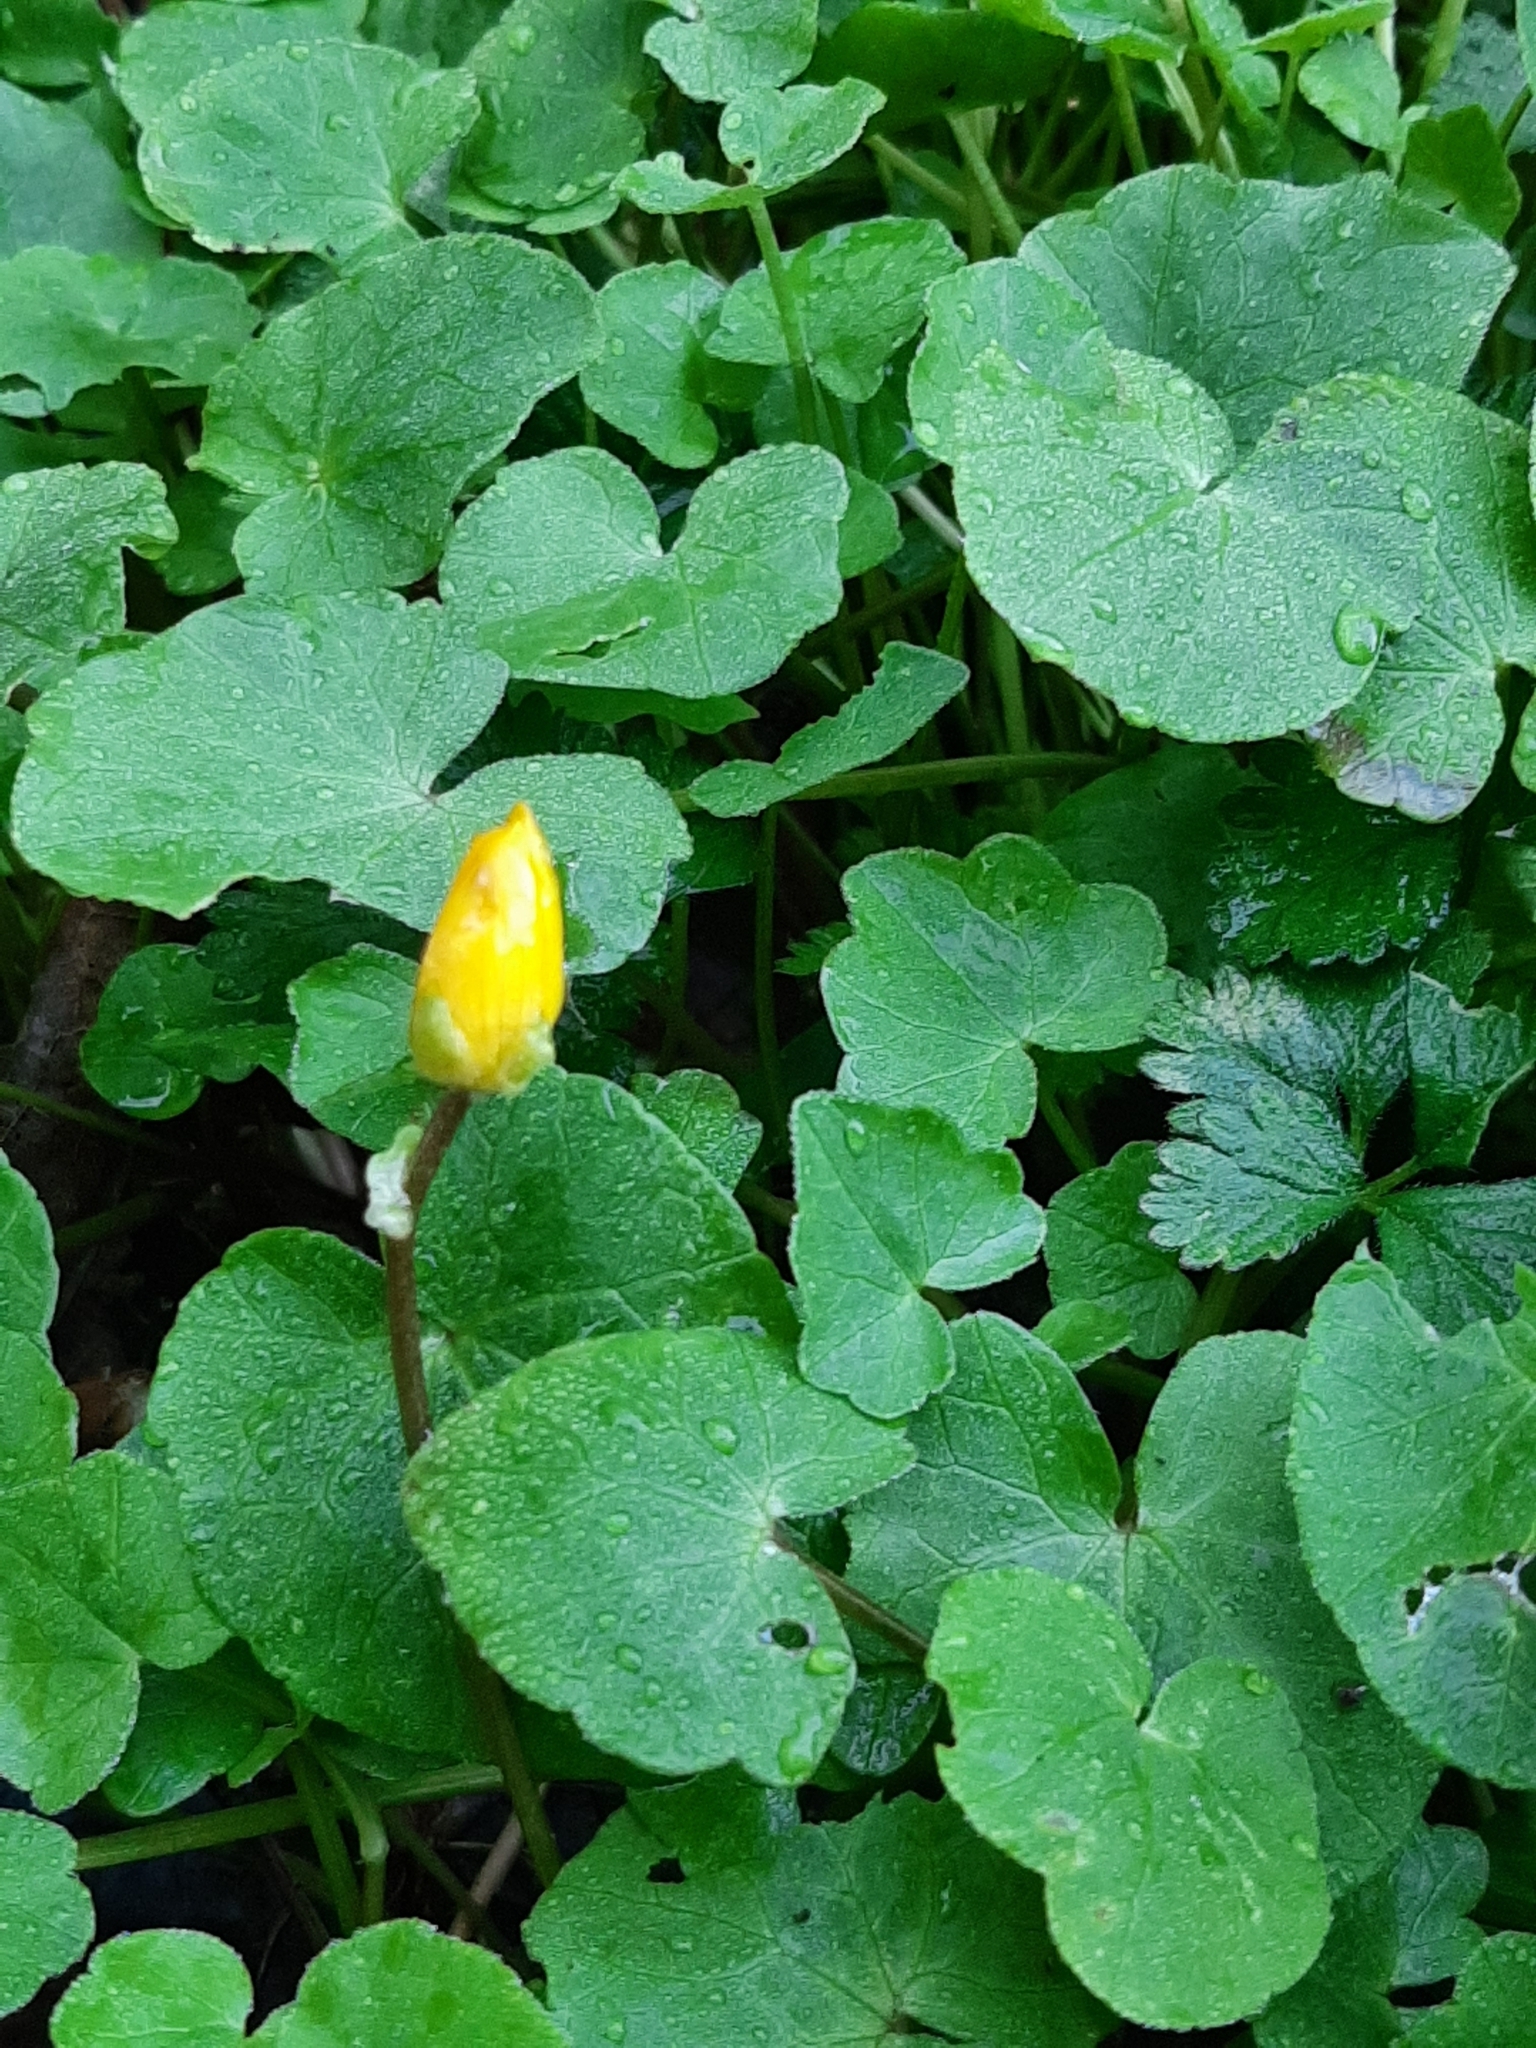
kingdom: Plantae
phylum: Tracheophyta
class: Magnoliopsida
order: Ranunculales
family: Ranunculaceae
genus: Ficaria
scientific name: Ficaria verna
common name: Lesser celandine
